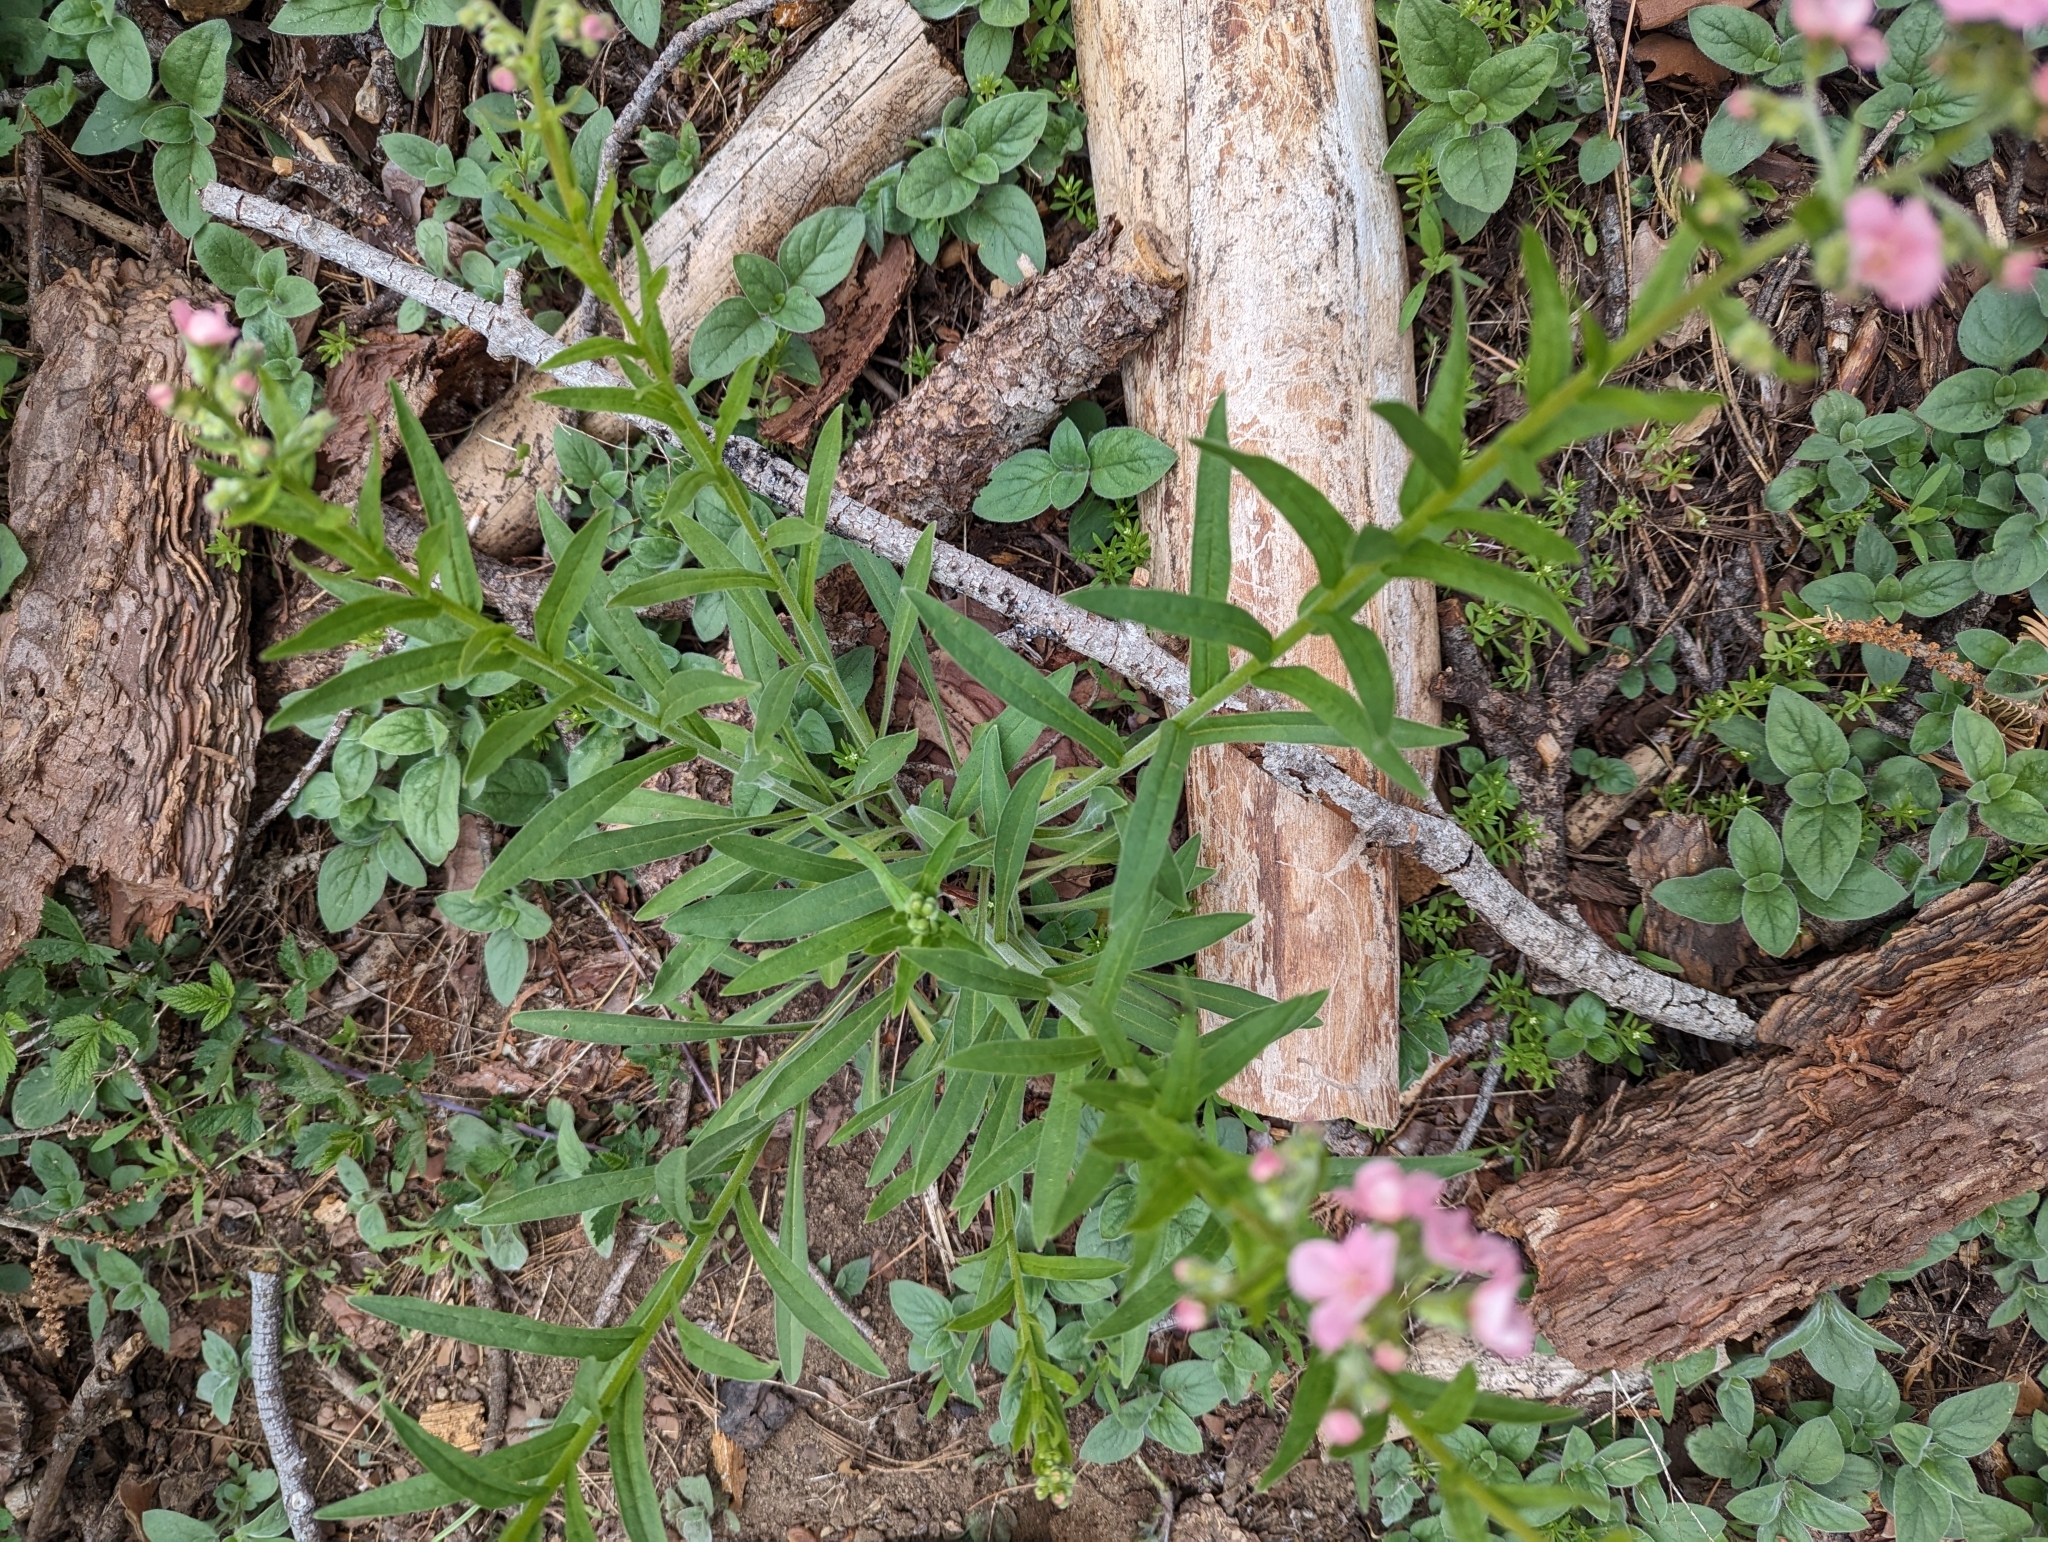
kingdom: Plantae
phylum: Tracheophyta
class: Magnoliopsida
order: Boraginales
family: Boraginaceae
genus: Hackelia
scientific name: Hackelia mundula
